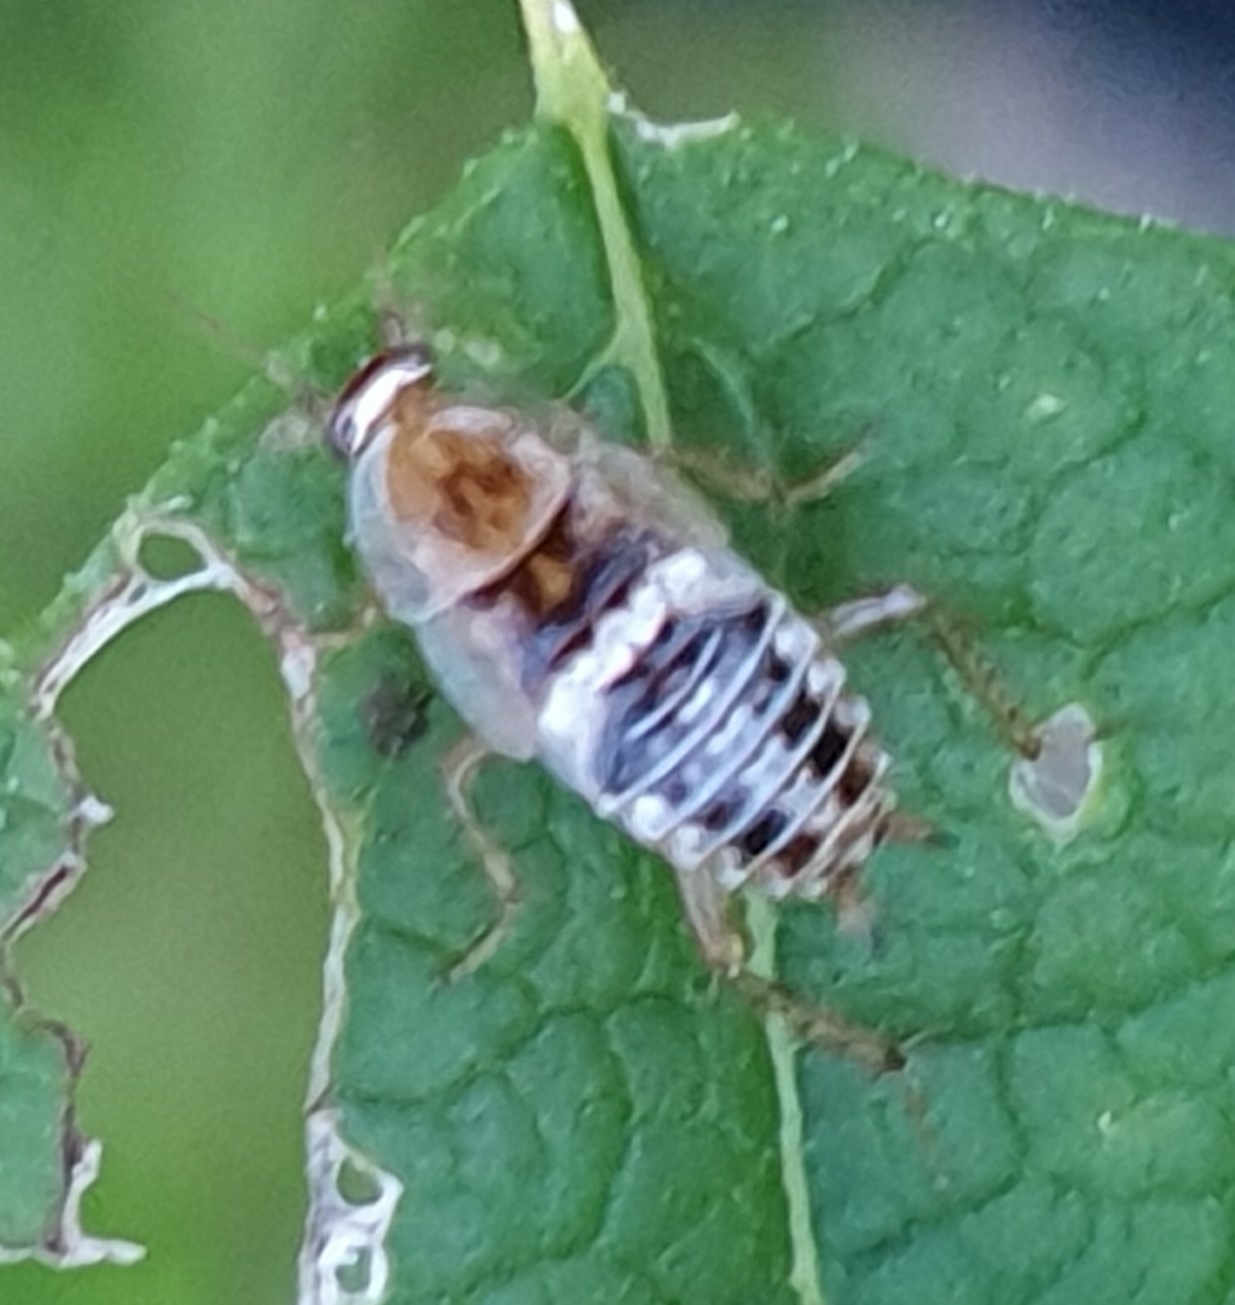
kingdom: Animalia
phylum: Arthropoda
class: Insecta
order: Blattodea
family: Ectobiidae
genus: Planuncus
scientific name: Planuncus vinzi
